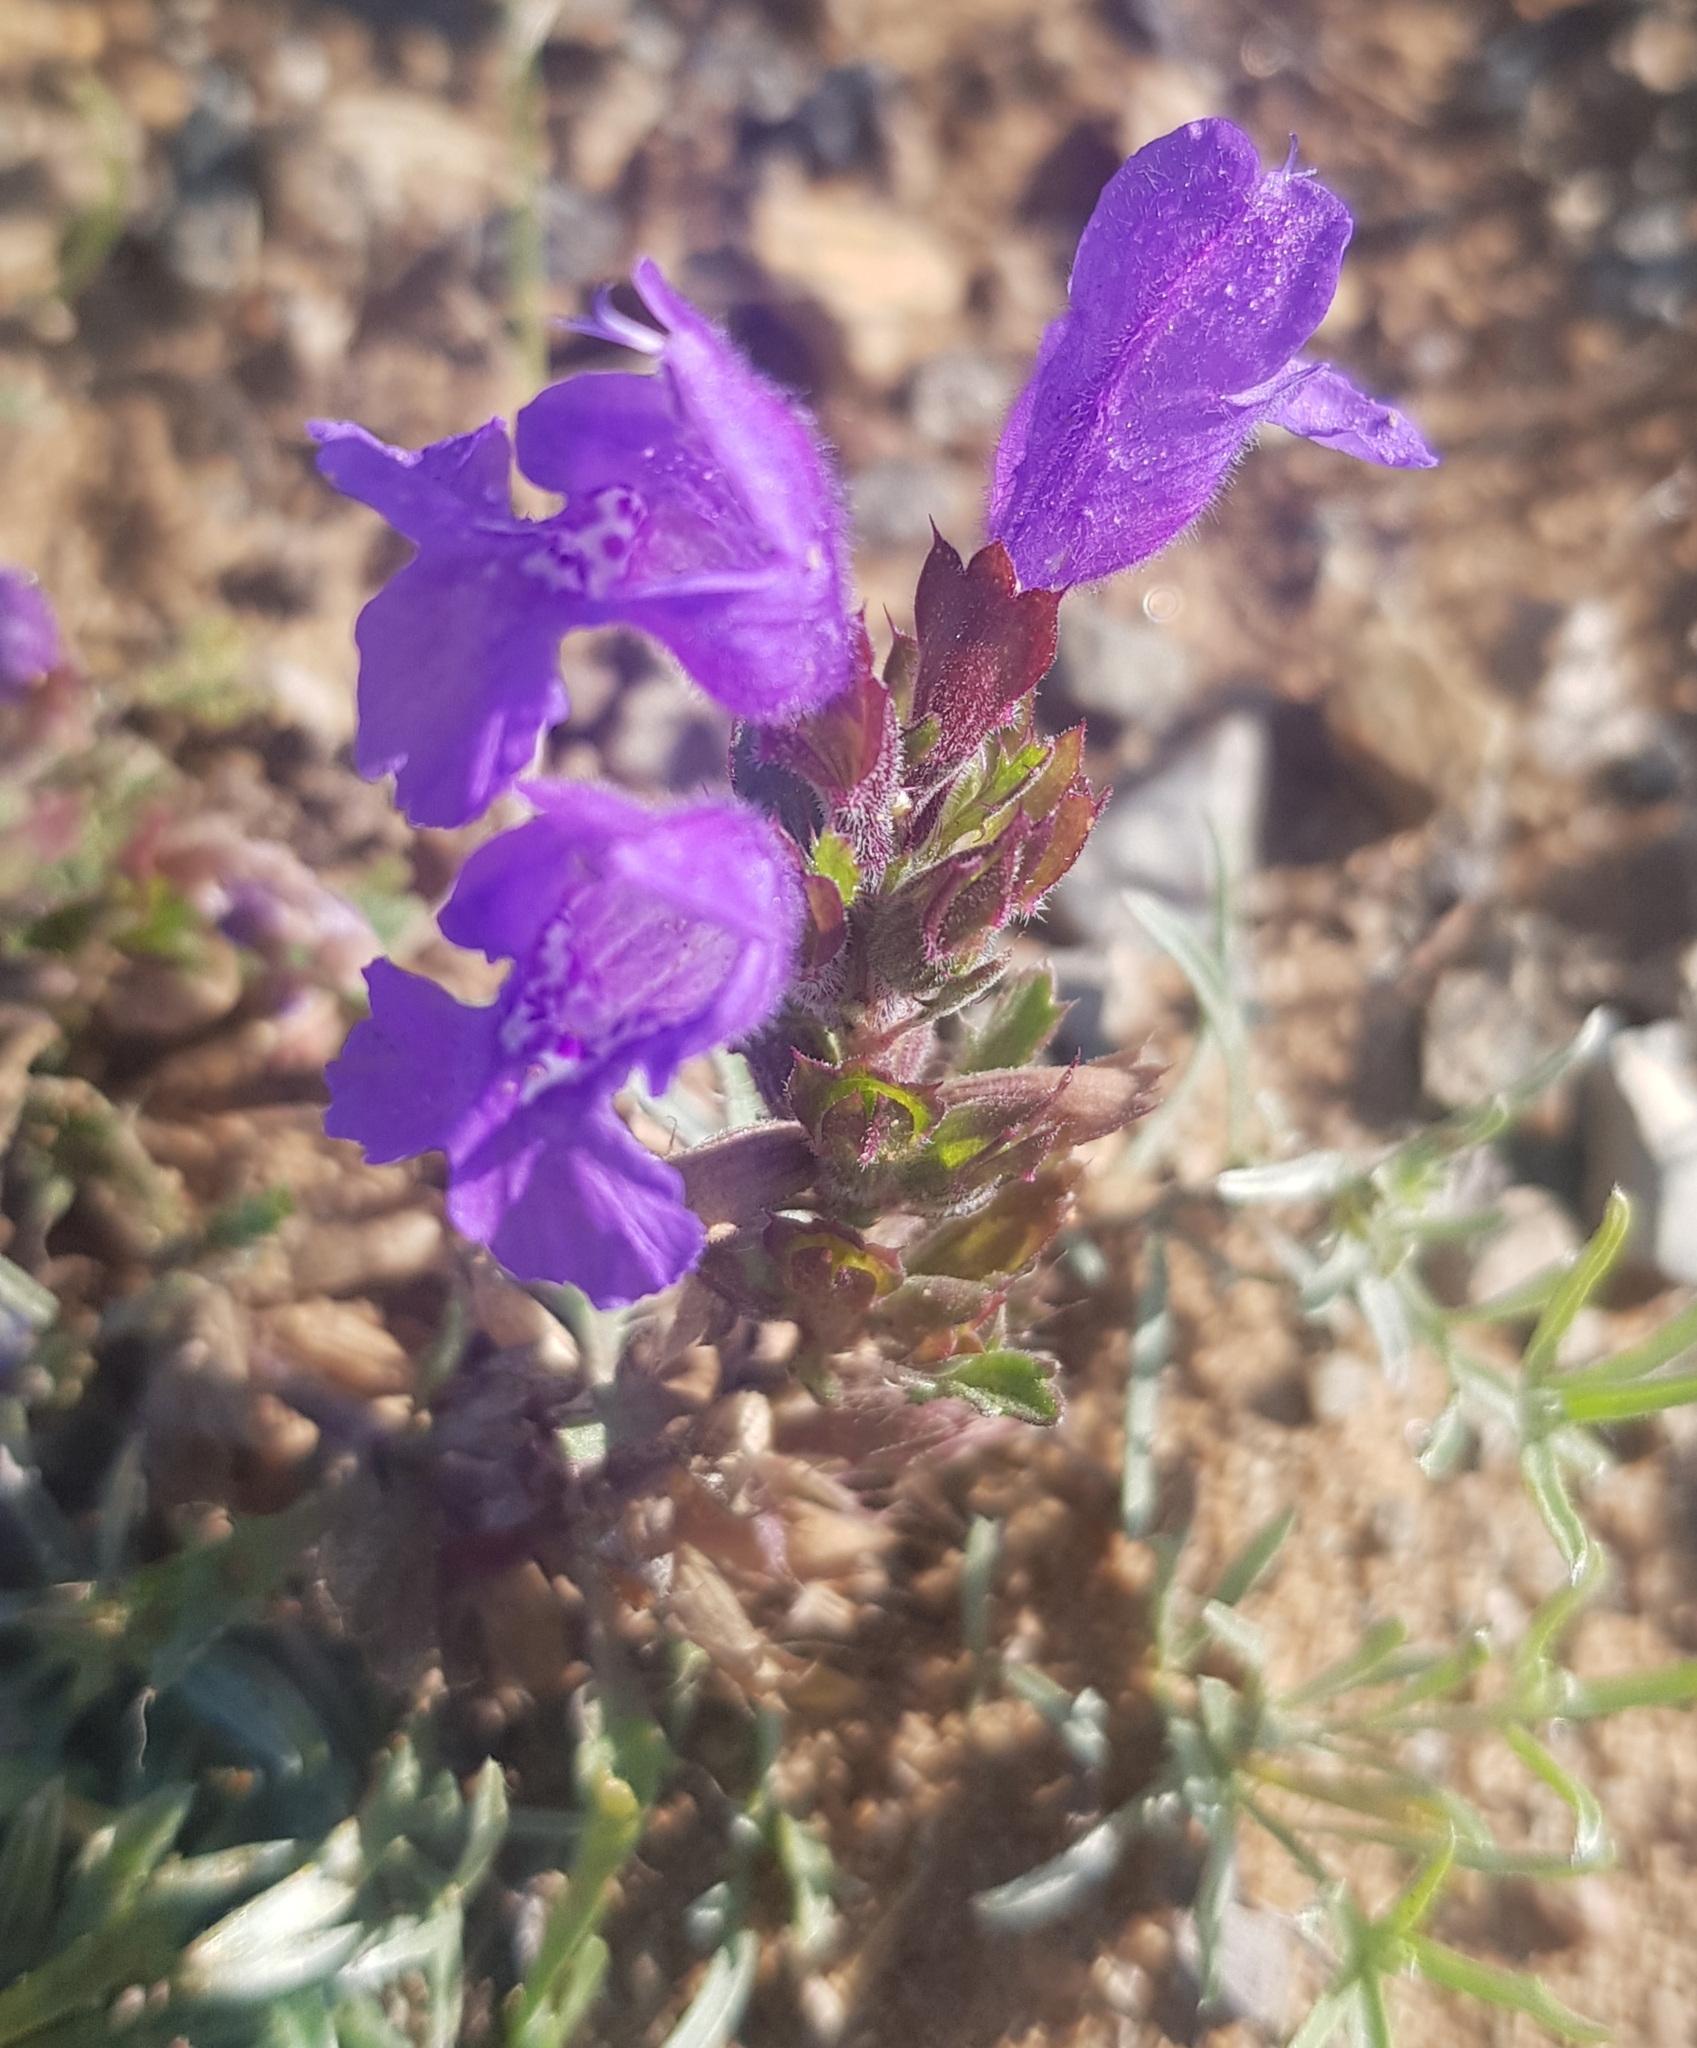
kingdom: Plantae
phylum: Tracheophyta
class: Magnoliopsida
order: Lamiales
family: Lamiaceae
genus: Dracocephalum
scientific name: Dracocephalum foetidum
